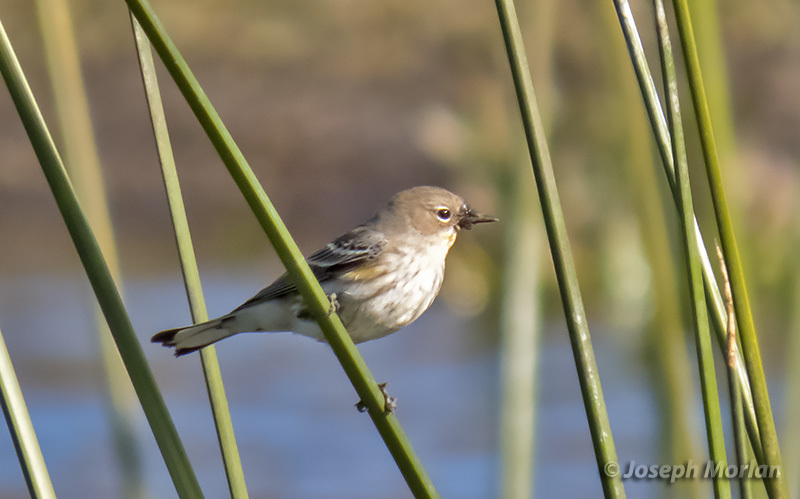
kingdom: Animalia
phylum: Chordata
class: Aves
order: Passeriformes
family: Parulidae
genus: Setophaga
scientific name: Setophaga coronata
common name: Myrtle warbler
